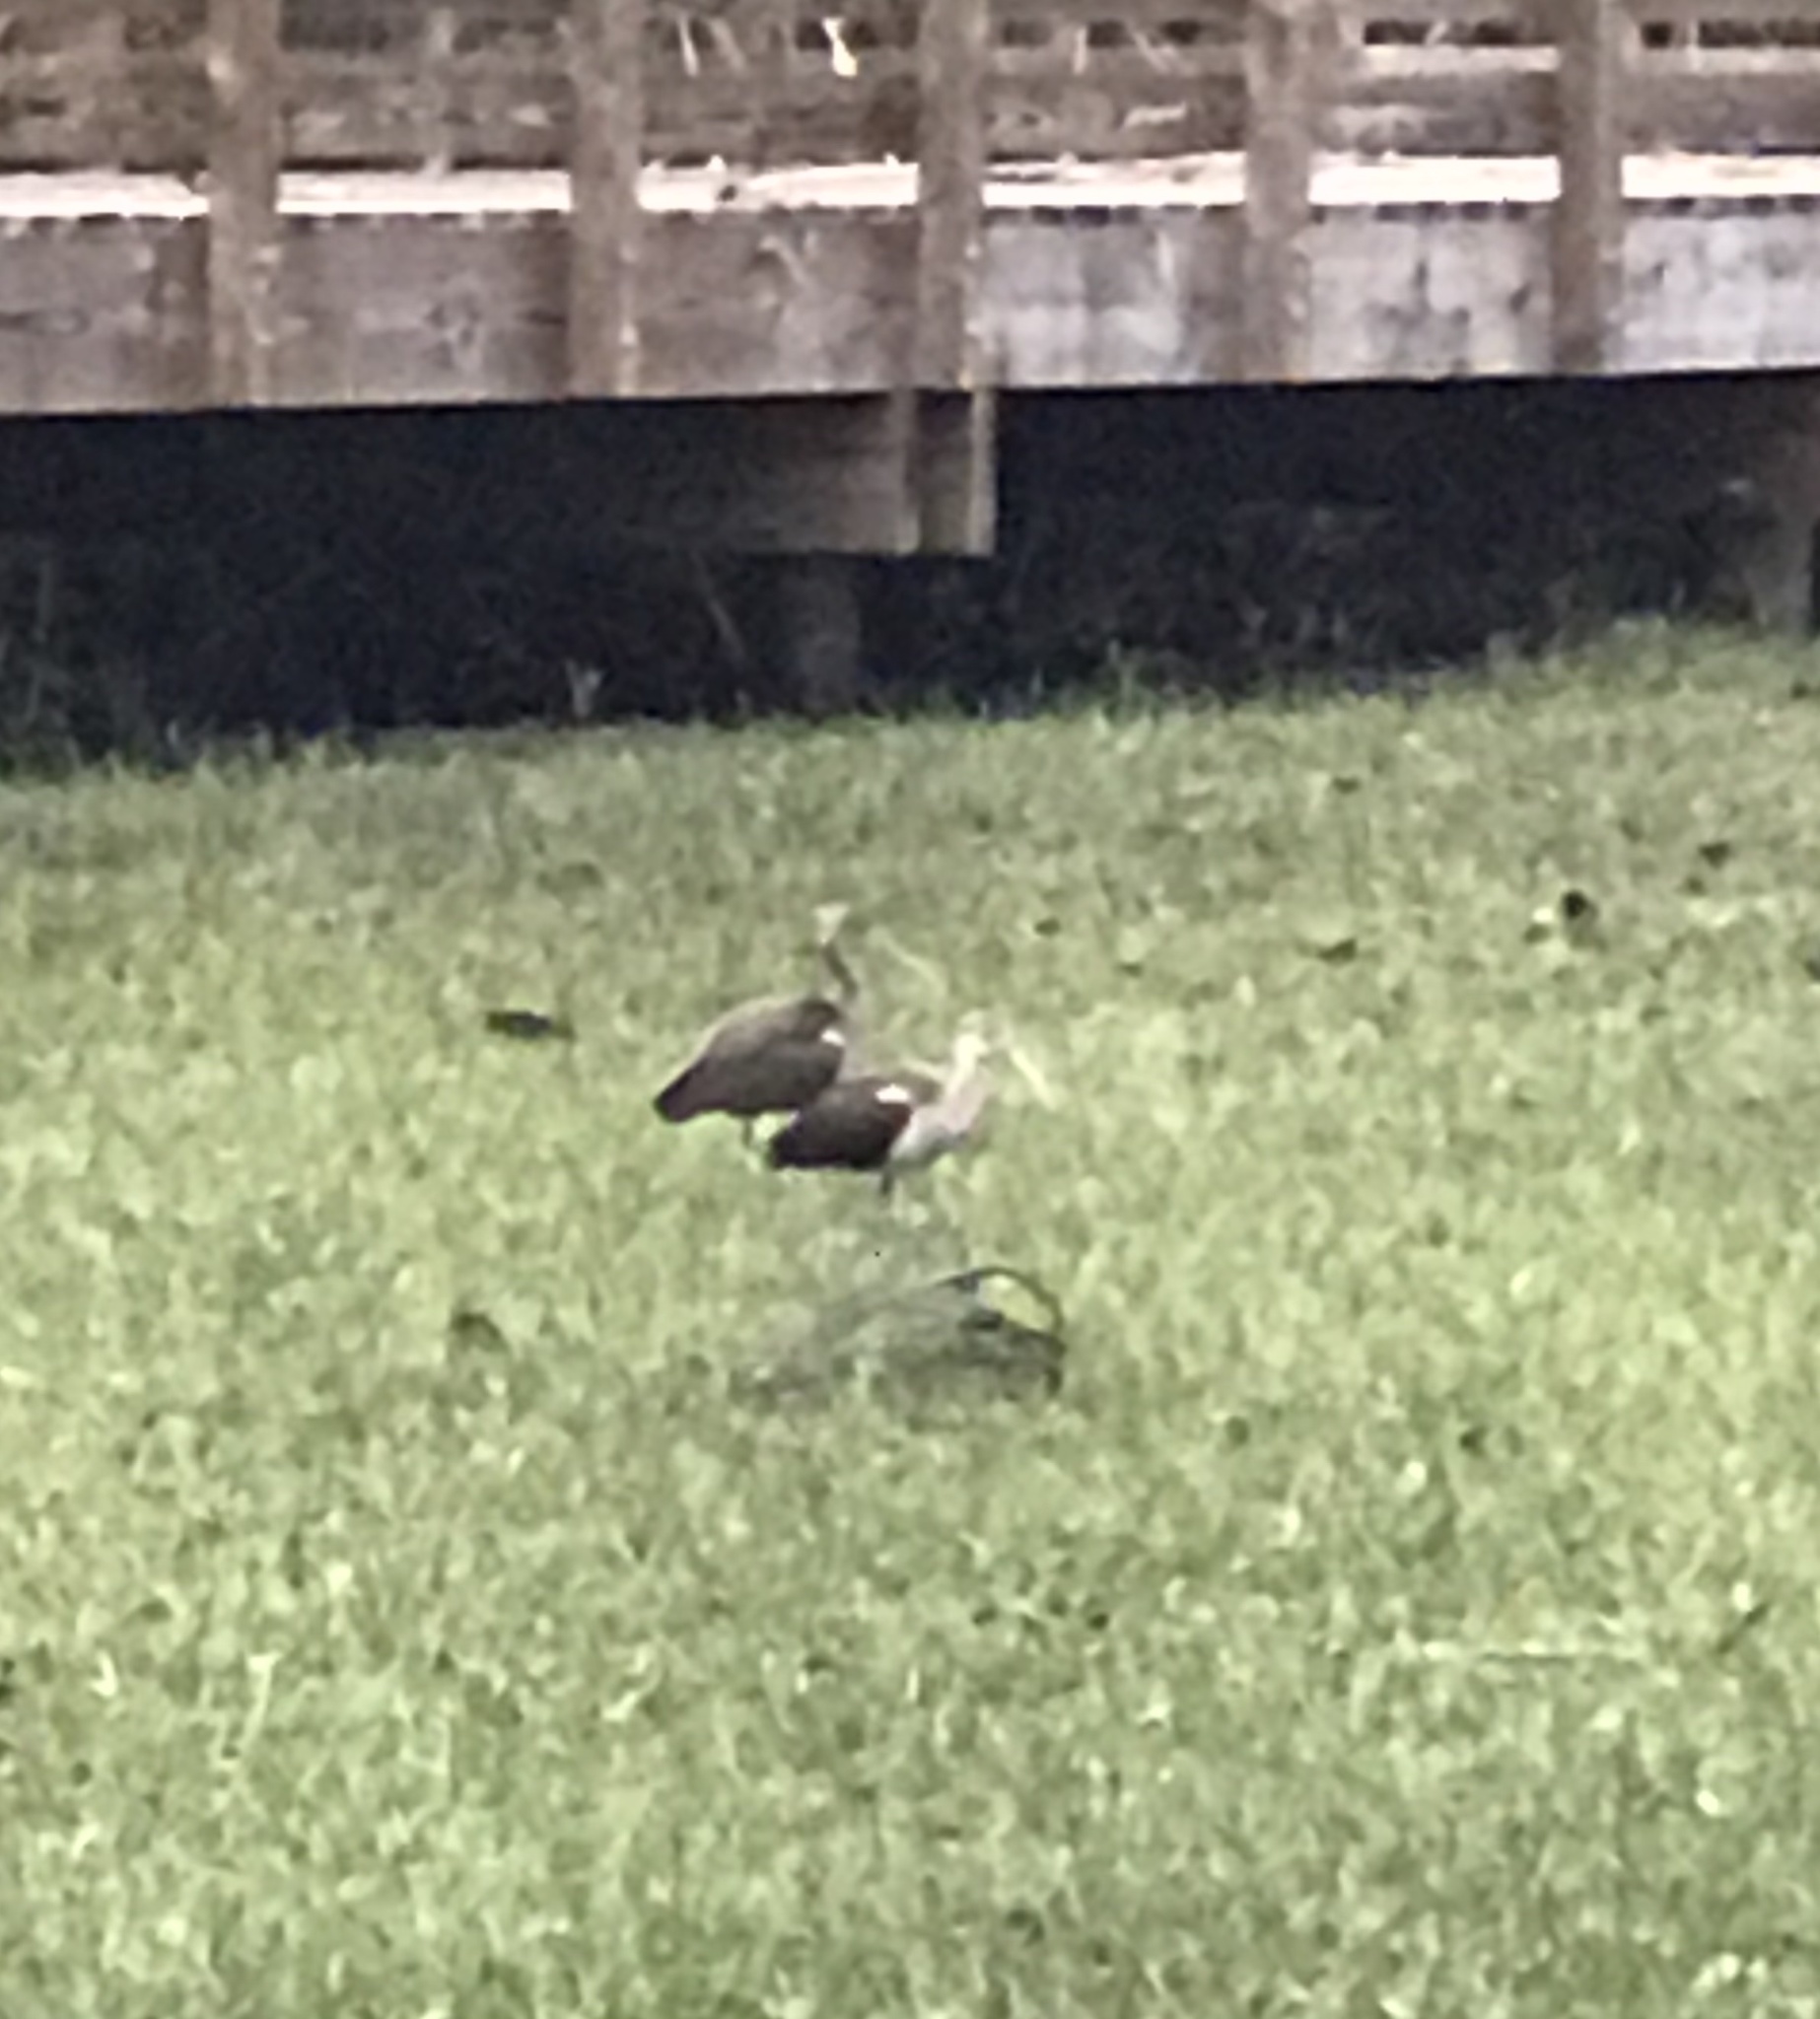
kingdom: Animalia
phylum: Chordata
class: Aves
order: Pelecaniformes
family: Threskiornithidae
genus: Eudocimus
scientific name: Eudocimus albus
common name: White ibis
